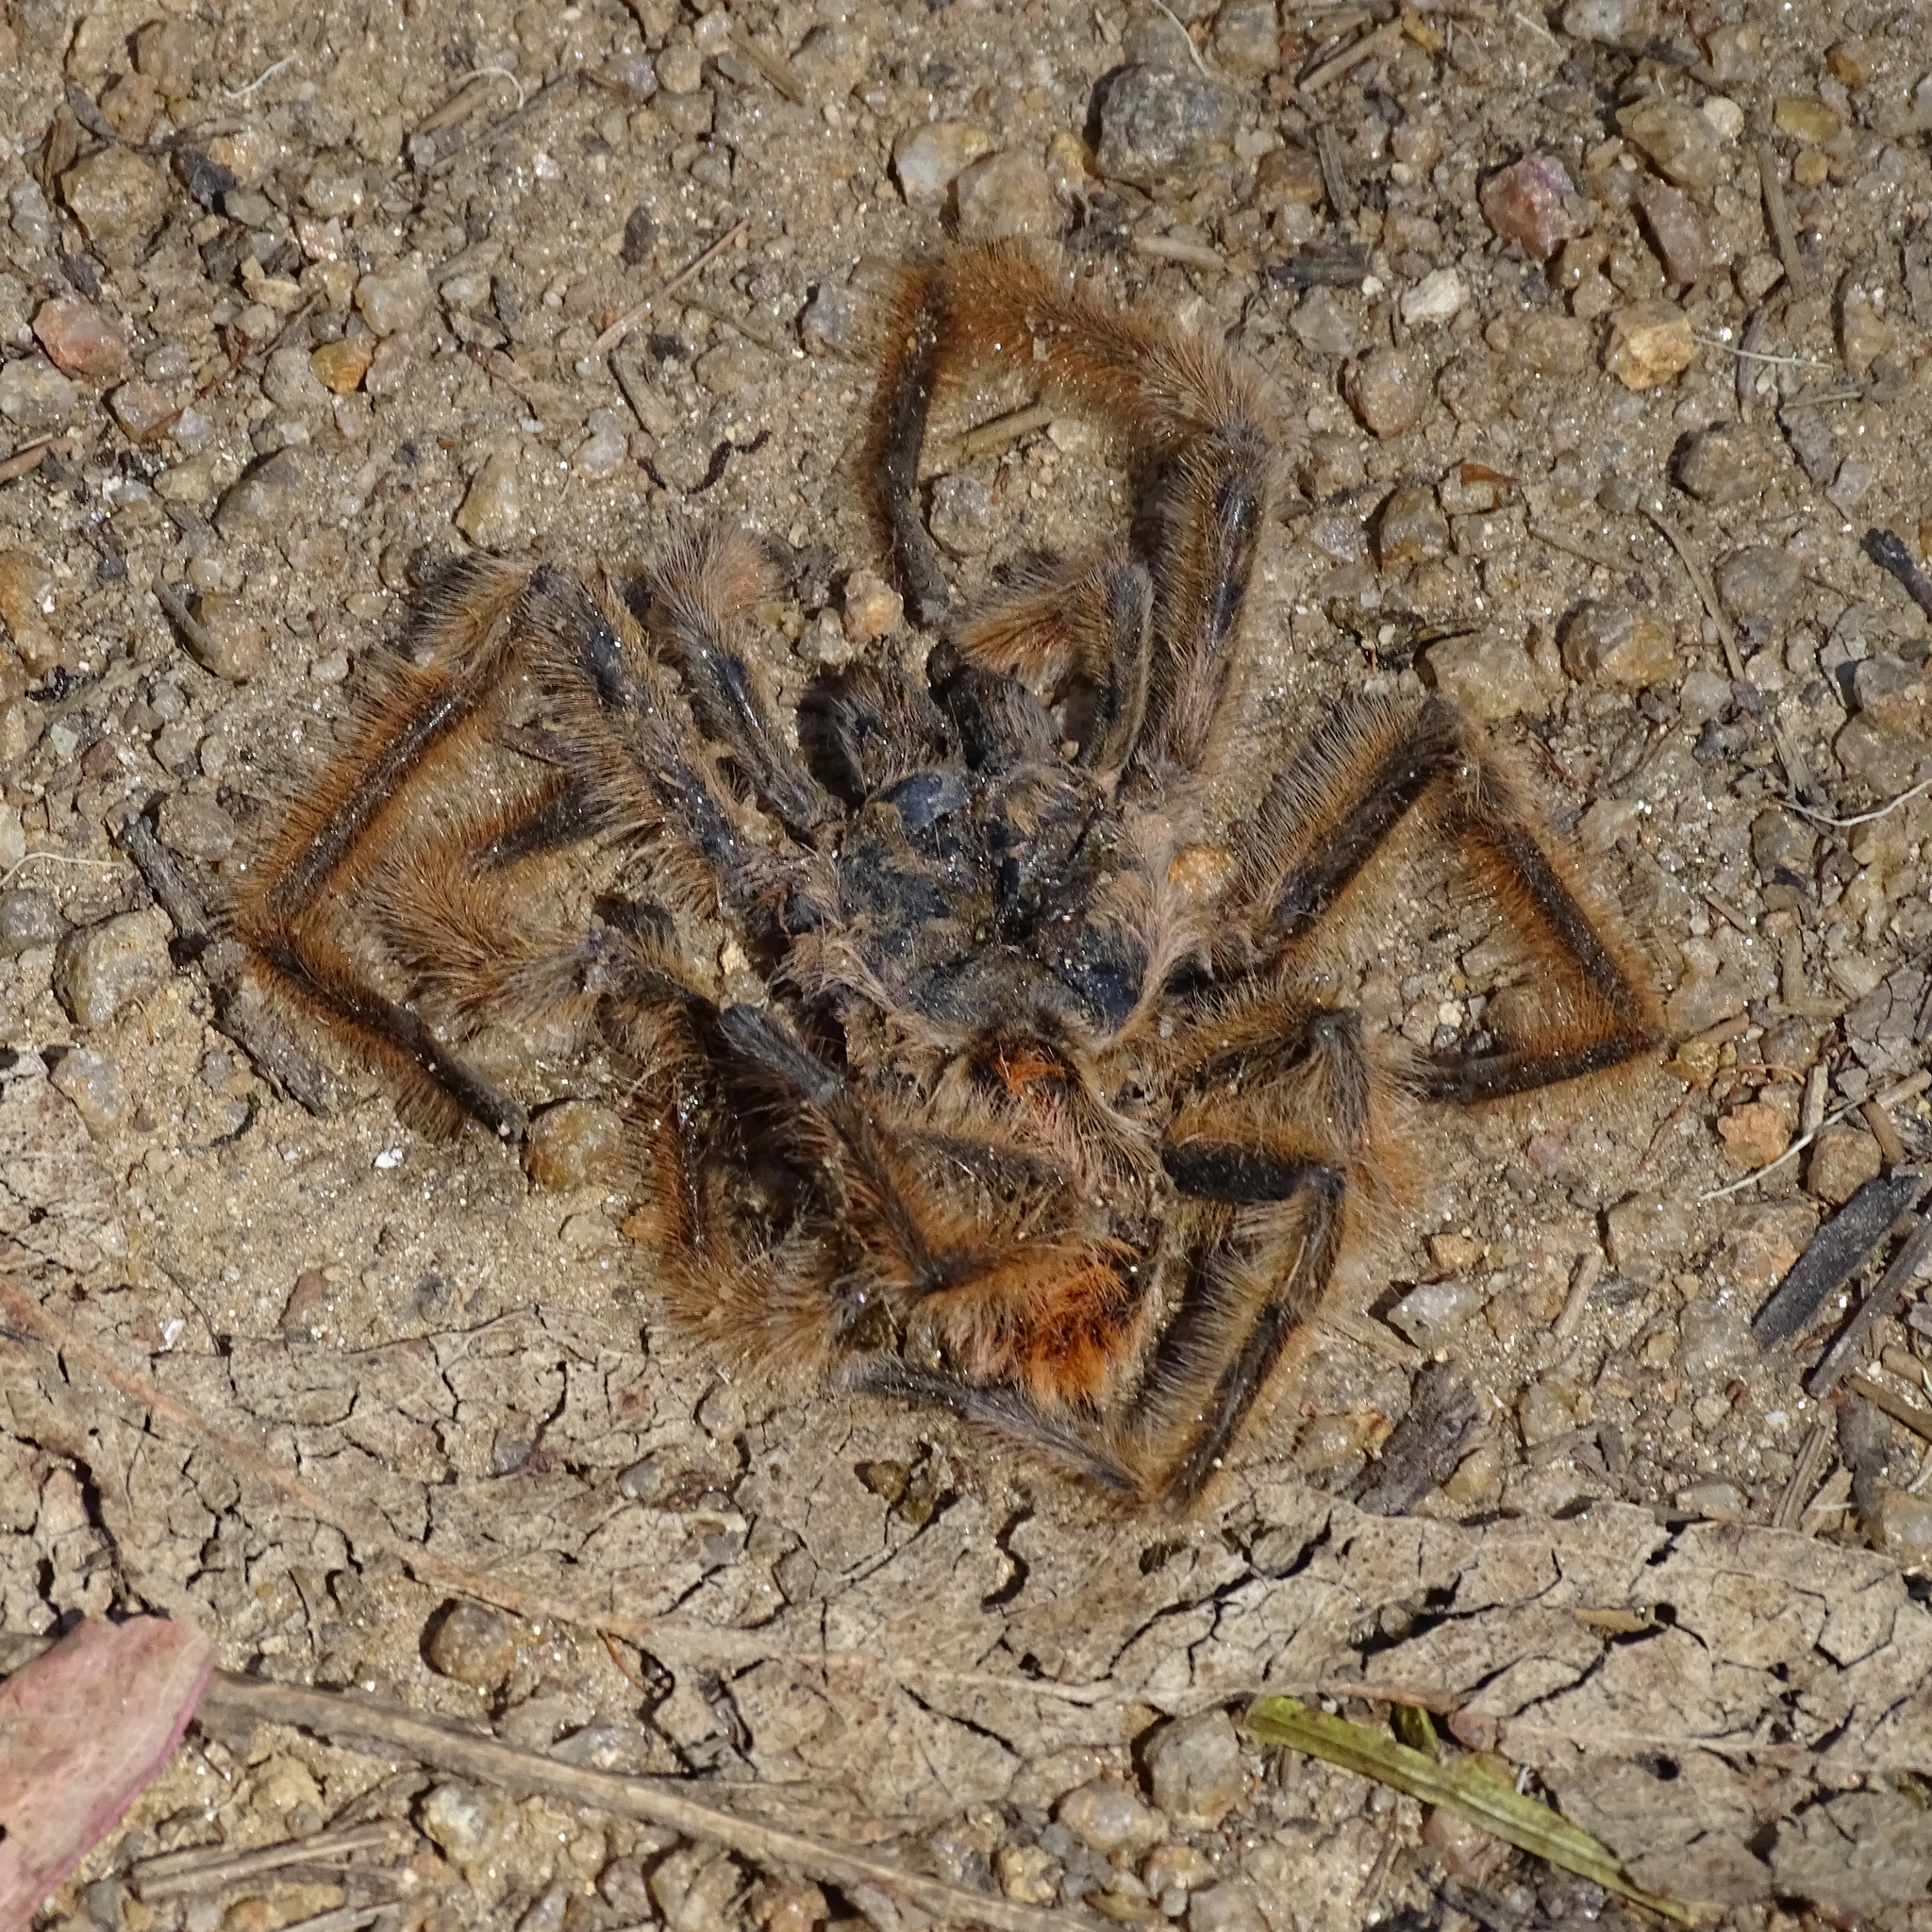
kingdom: Animalia
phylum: Arthropoda
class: Arachnida
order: Araneae
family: Theraphosidae
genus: Phrixotrichus
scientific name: Phrixotrichus vulpinus
